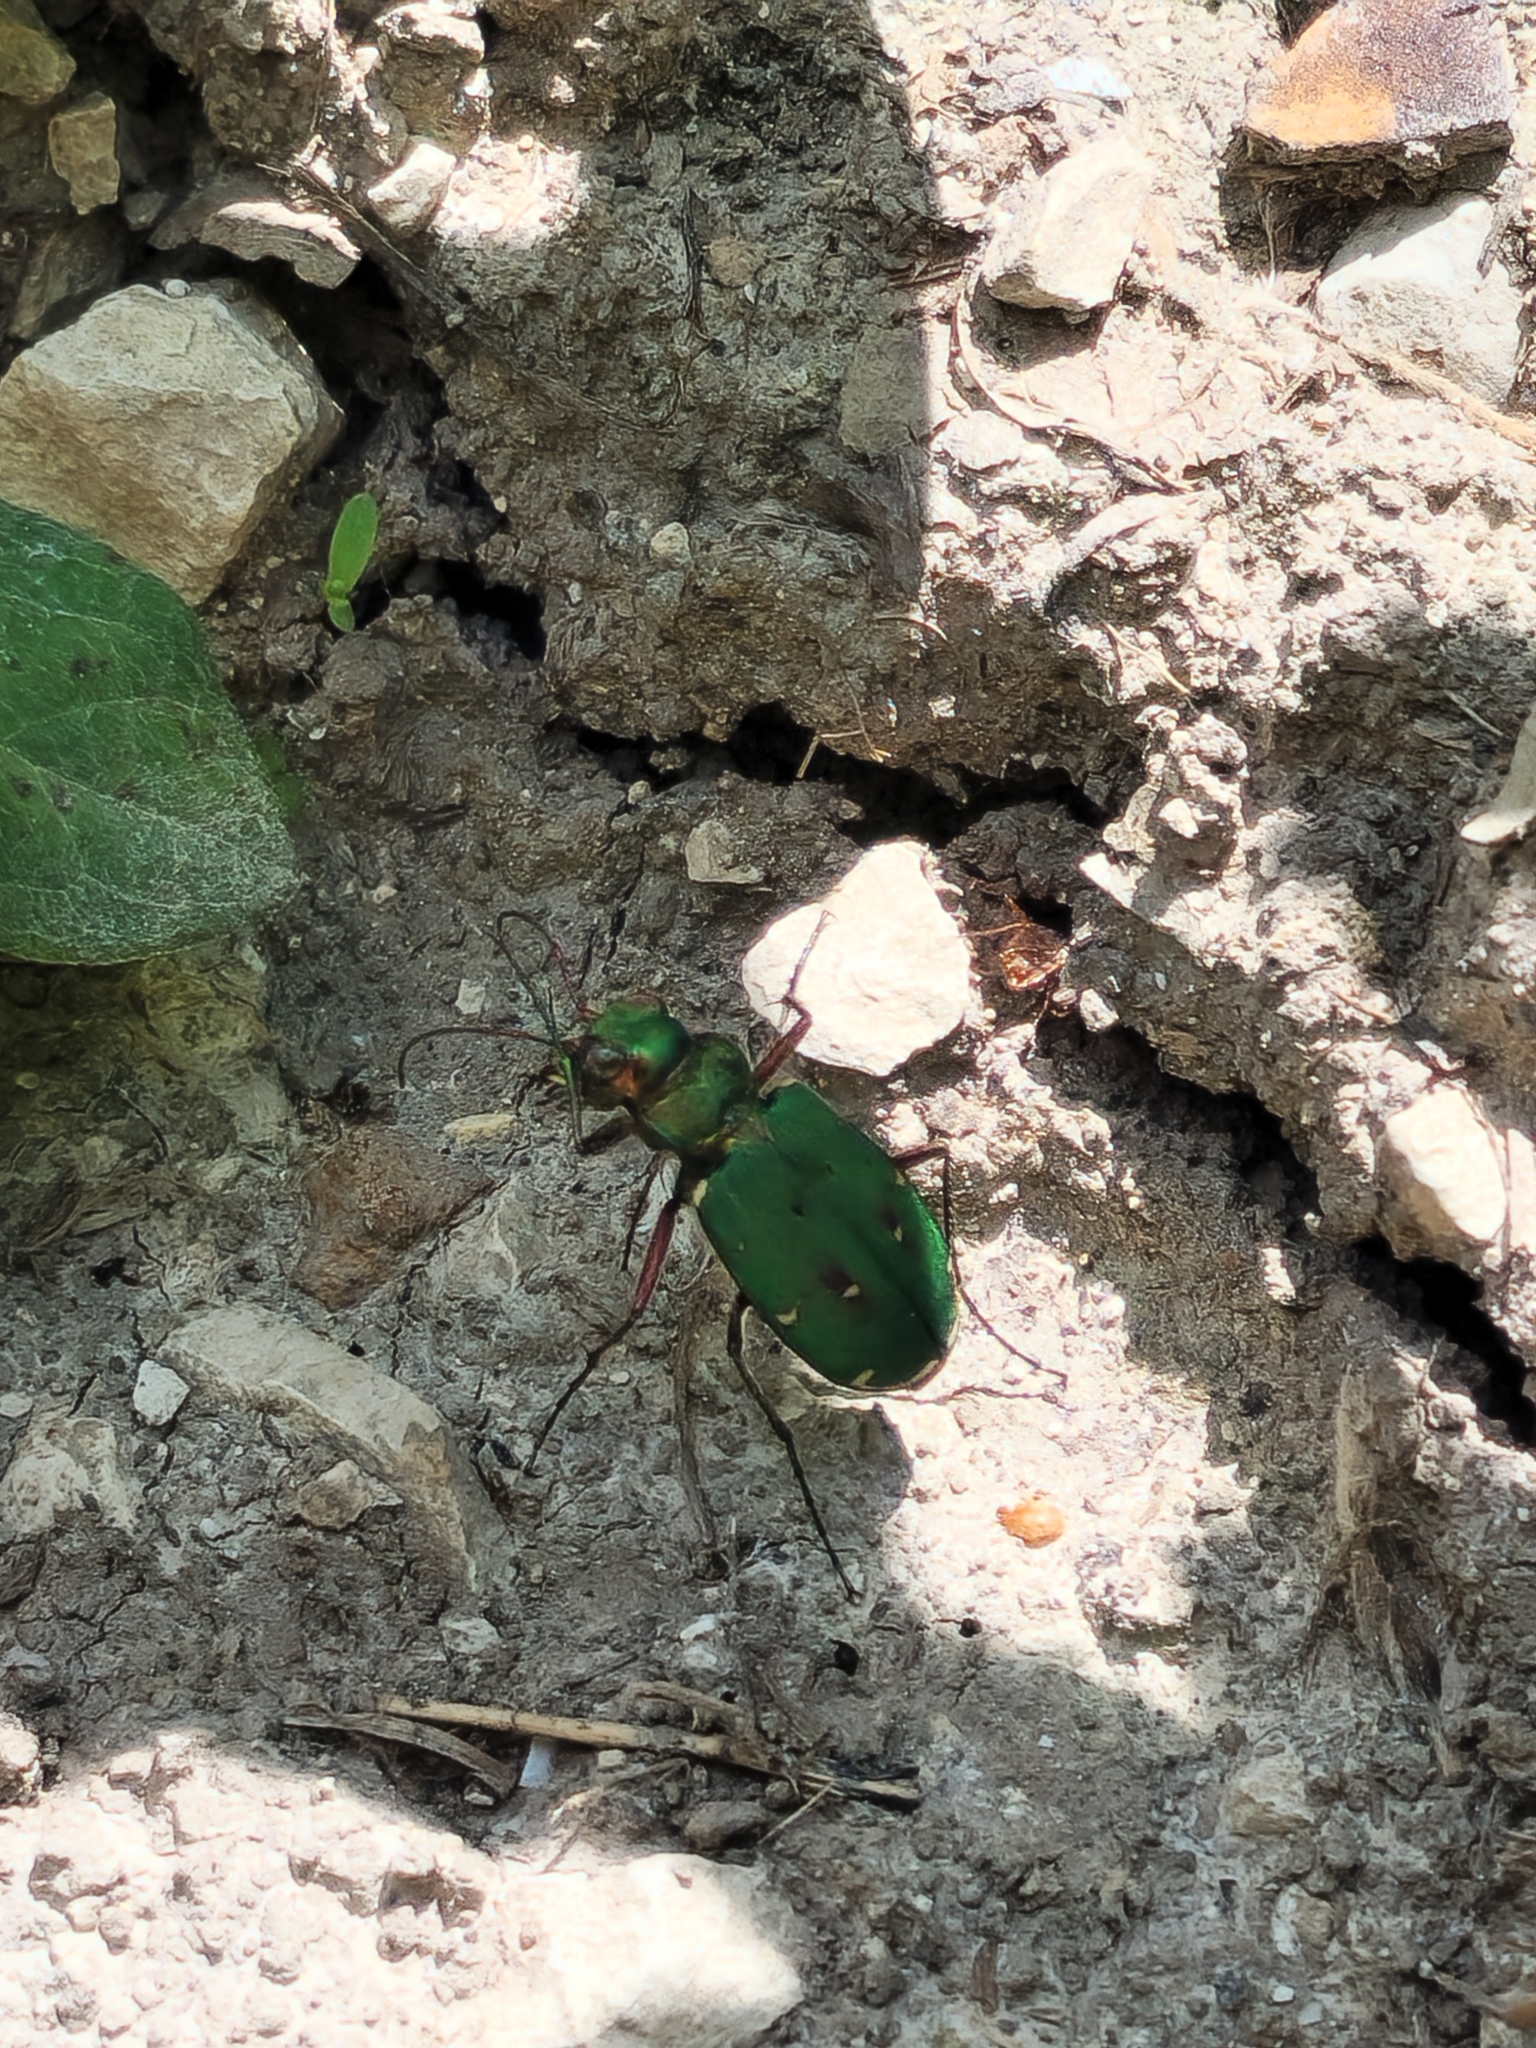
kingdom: Animalia
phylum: Arthropoda
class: Insecta
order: Coleoptera
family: Carabidae
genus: Cicindela
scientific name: Cicindela campestris
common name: Common tiger beetle
